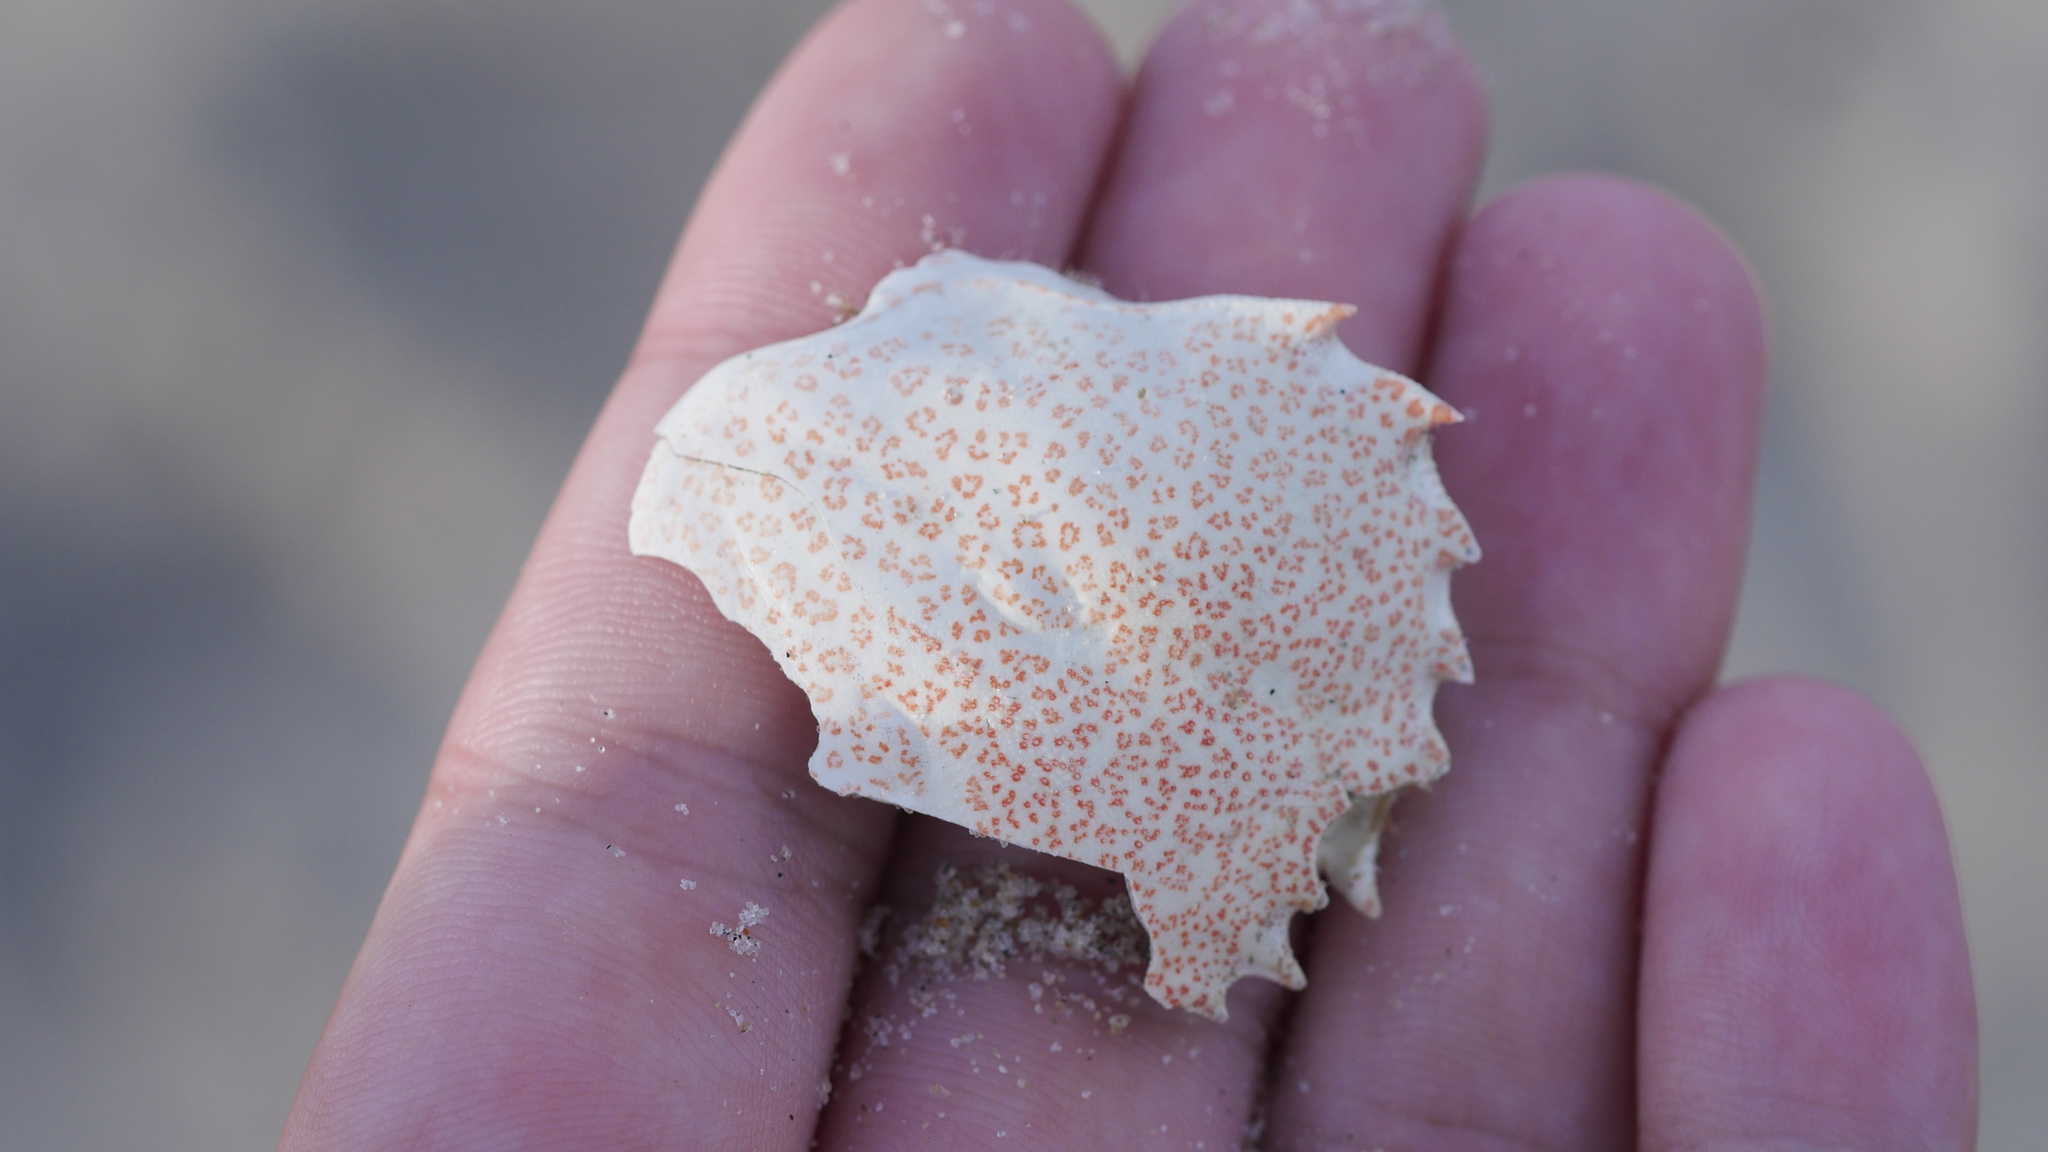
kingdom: Animalia
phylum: Arthropoda
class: Malacostraca
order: Decapoda
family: Ovalipidae
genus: Ovalipes
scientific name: Ovalipes ocellatus
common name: Lady crab
